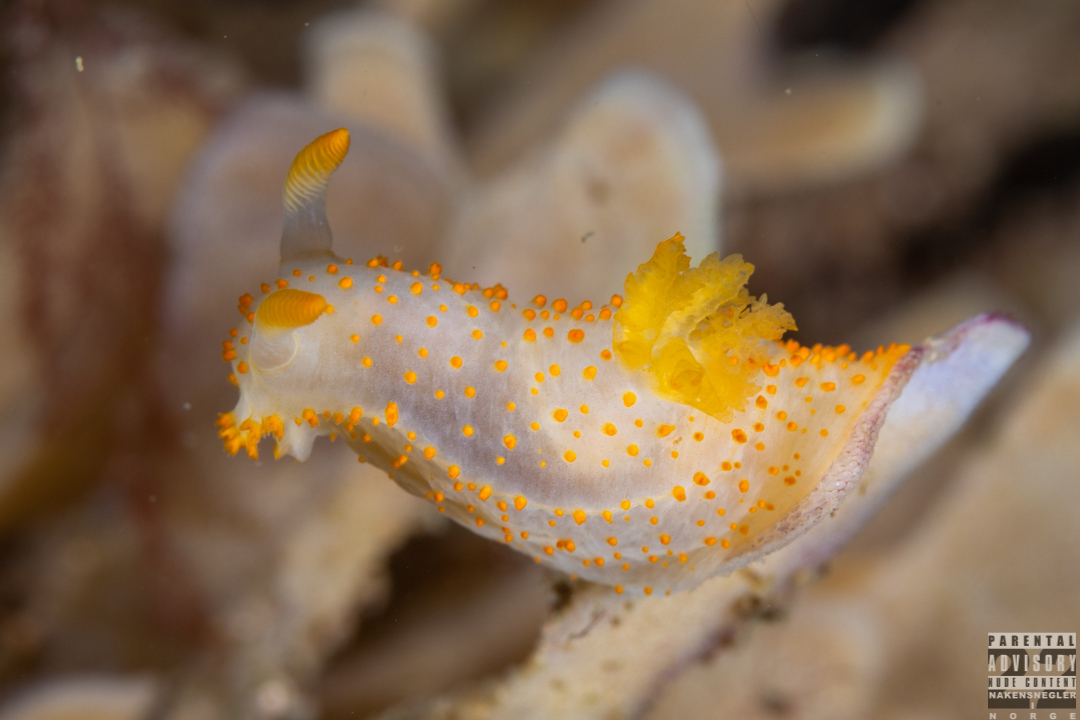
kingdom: Animalia
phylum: Mollusca
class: Gastropoda
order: Nudibranchia
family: Polyceridae
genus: Crimora
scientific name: Crimora papillata
